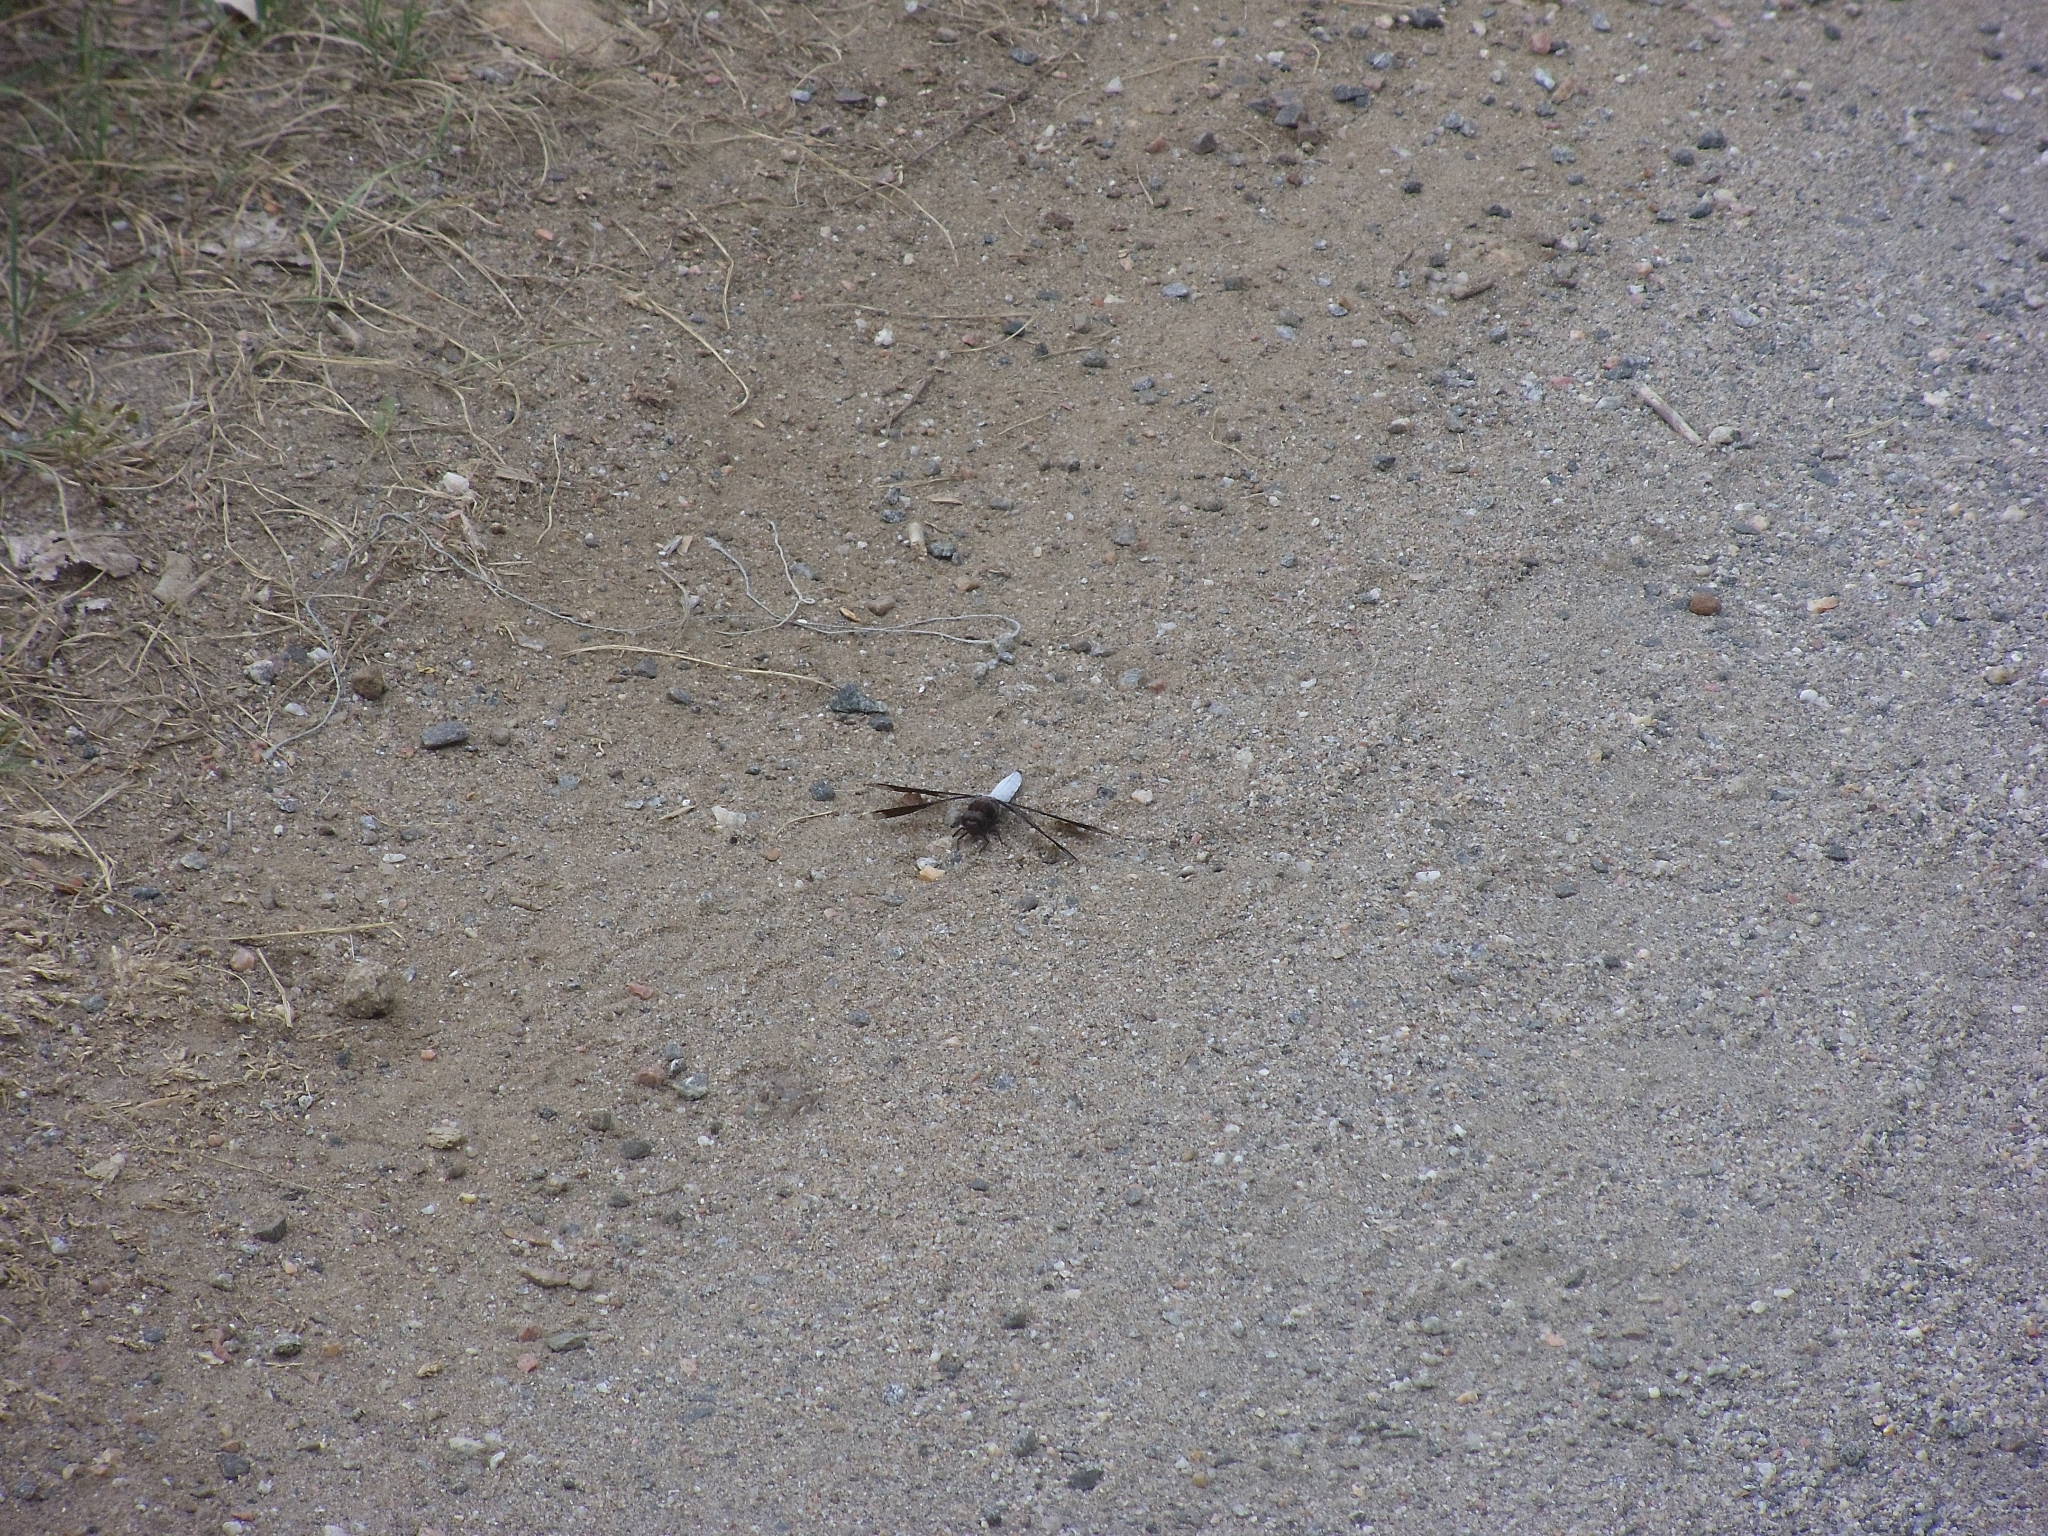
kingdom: Animalia
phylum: Arthropoda
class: Insecta
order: Odonata
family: Libellulidae
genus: Plathemis
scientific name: Plathemis lydia
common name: Common whitetail
